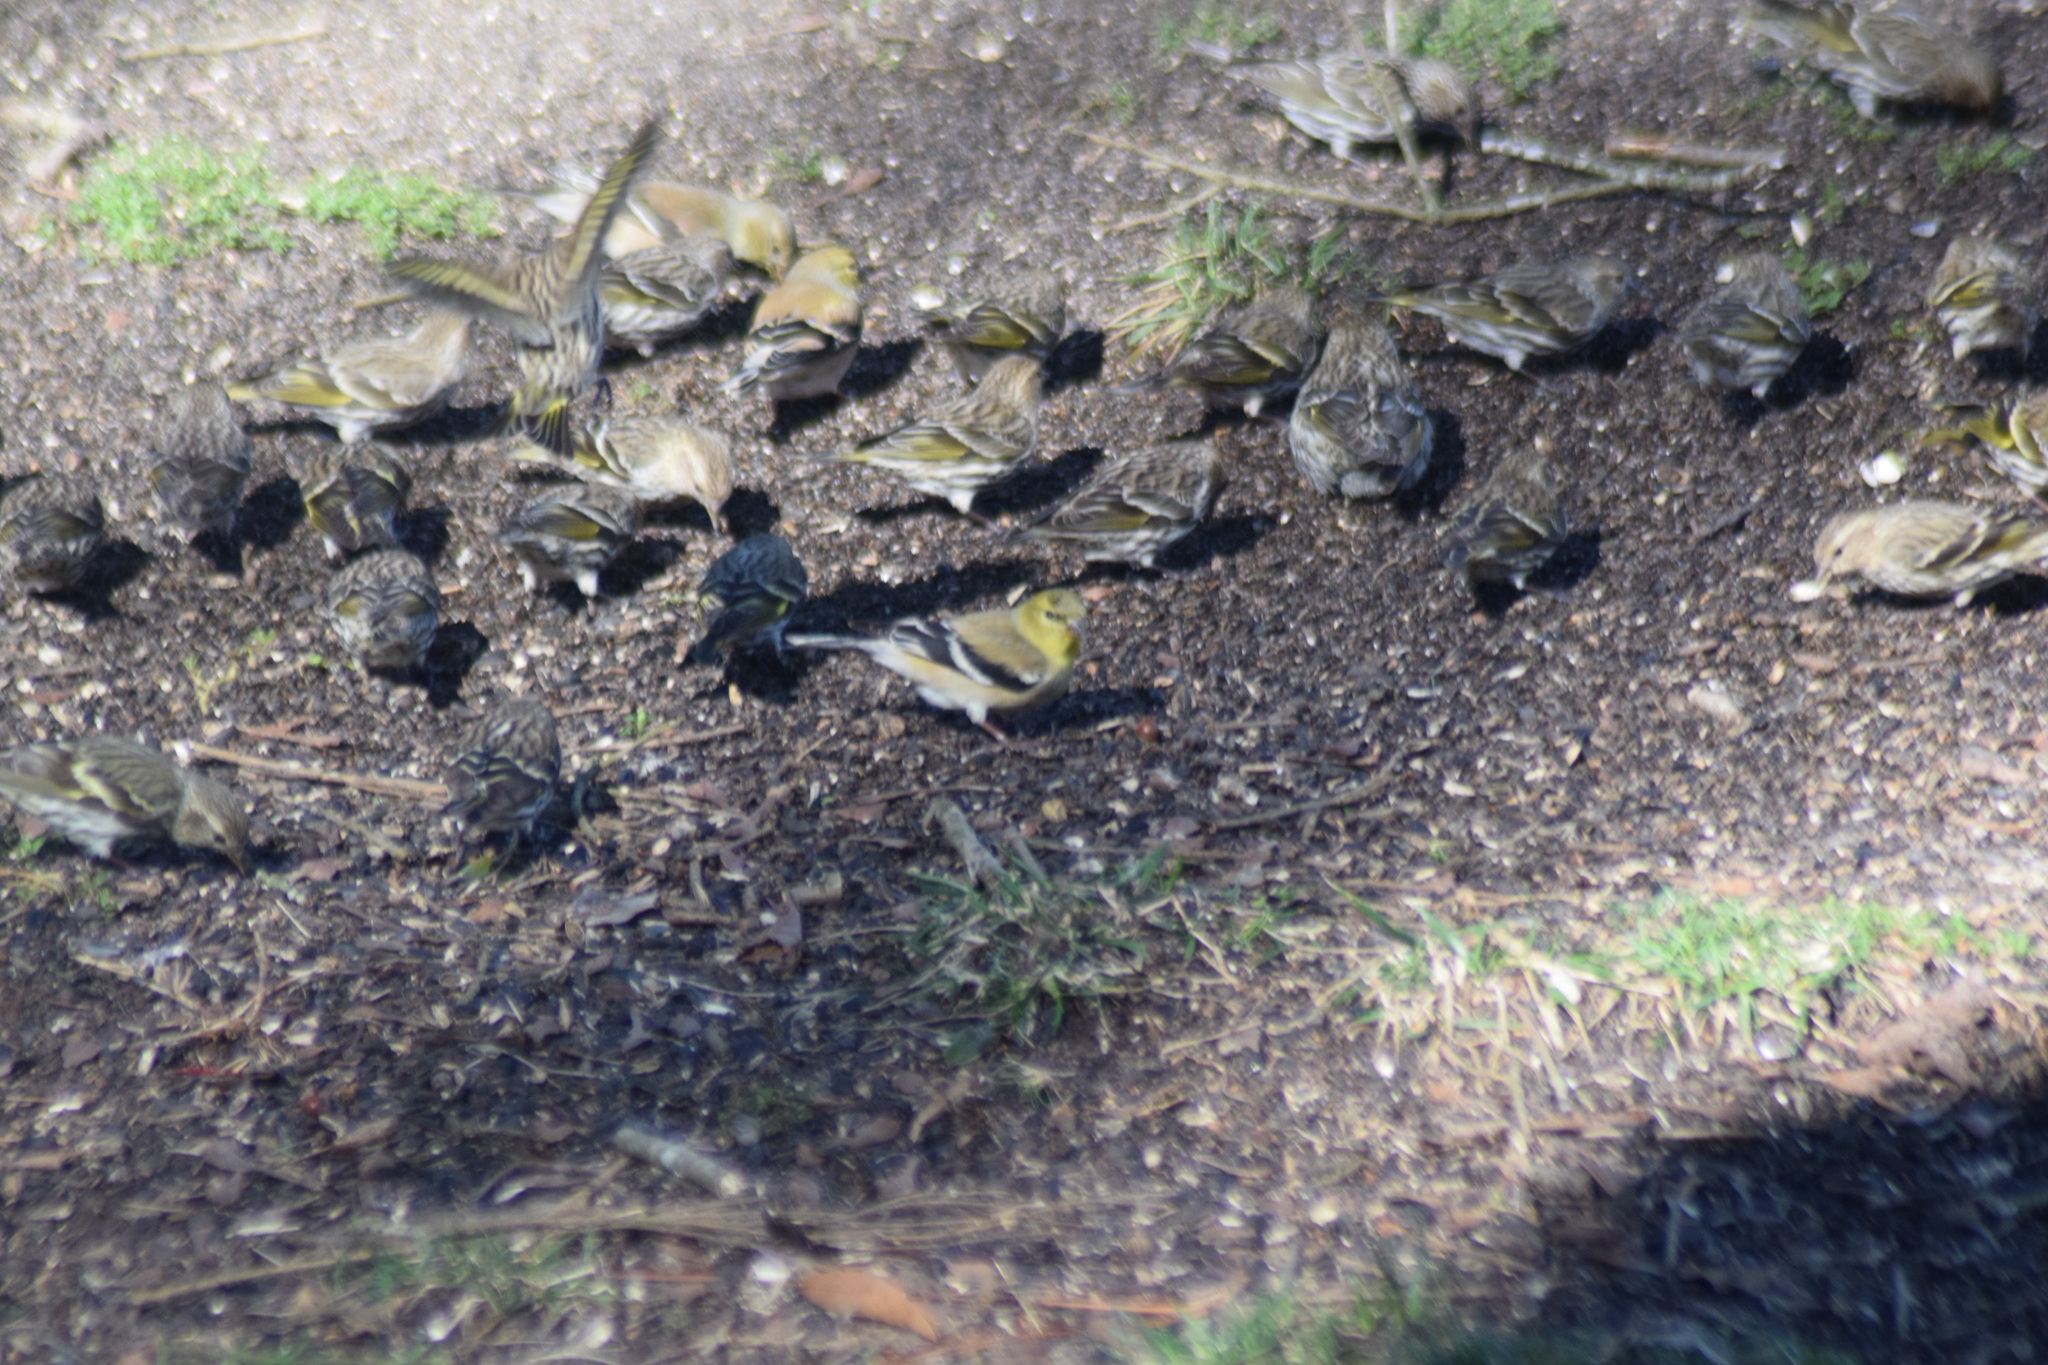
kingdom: Animalia
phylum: Chordata
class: Aves
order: Passeriformes
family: Fringillidae
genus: Spinus
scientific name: Spinus pinus
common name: Pine siskin
